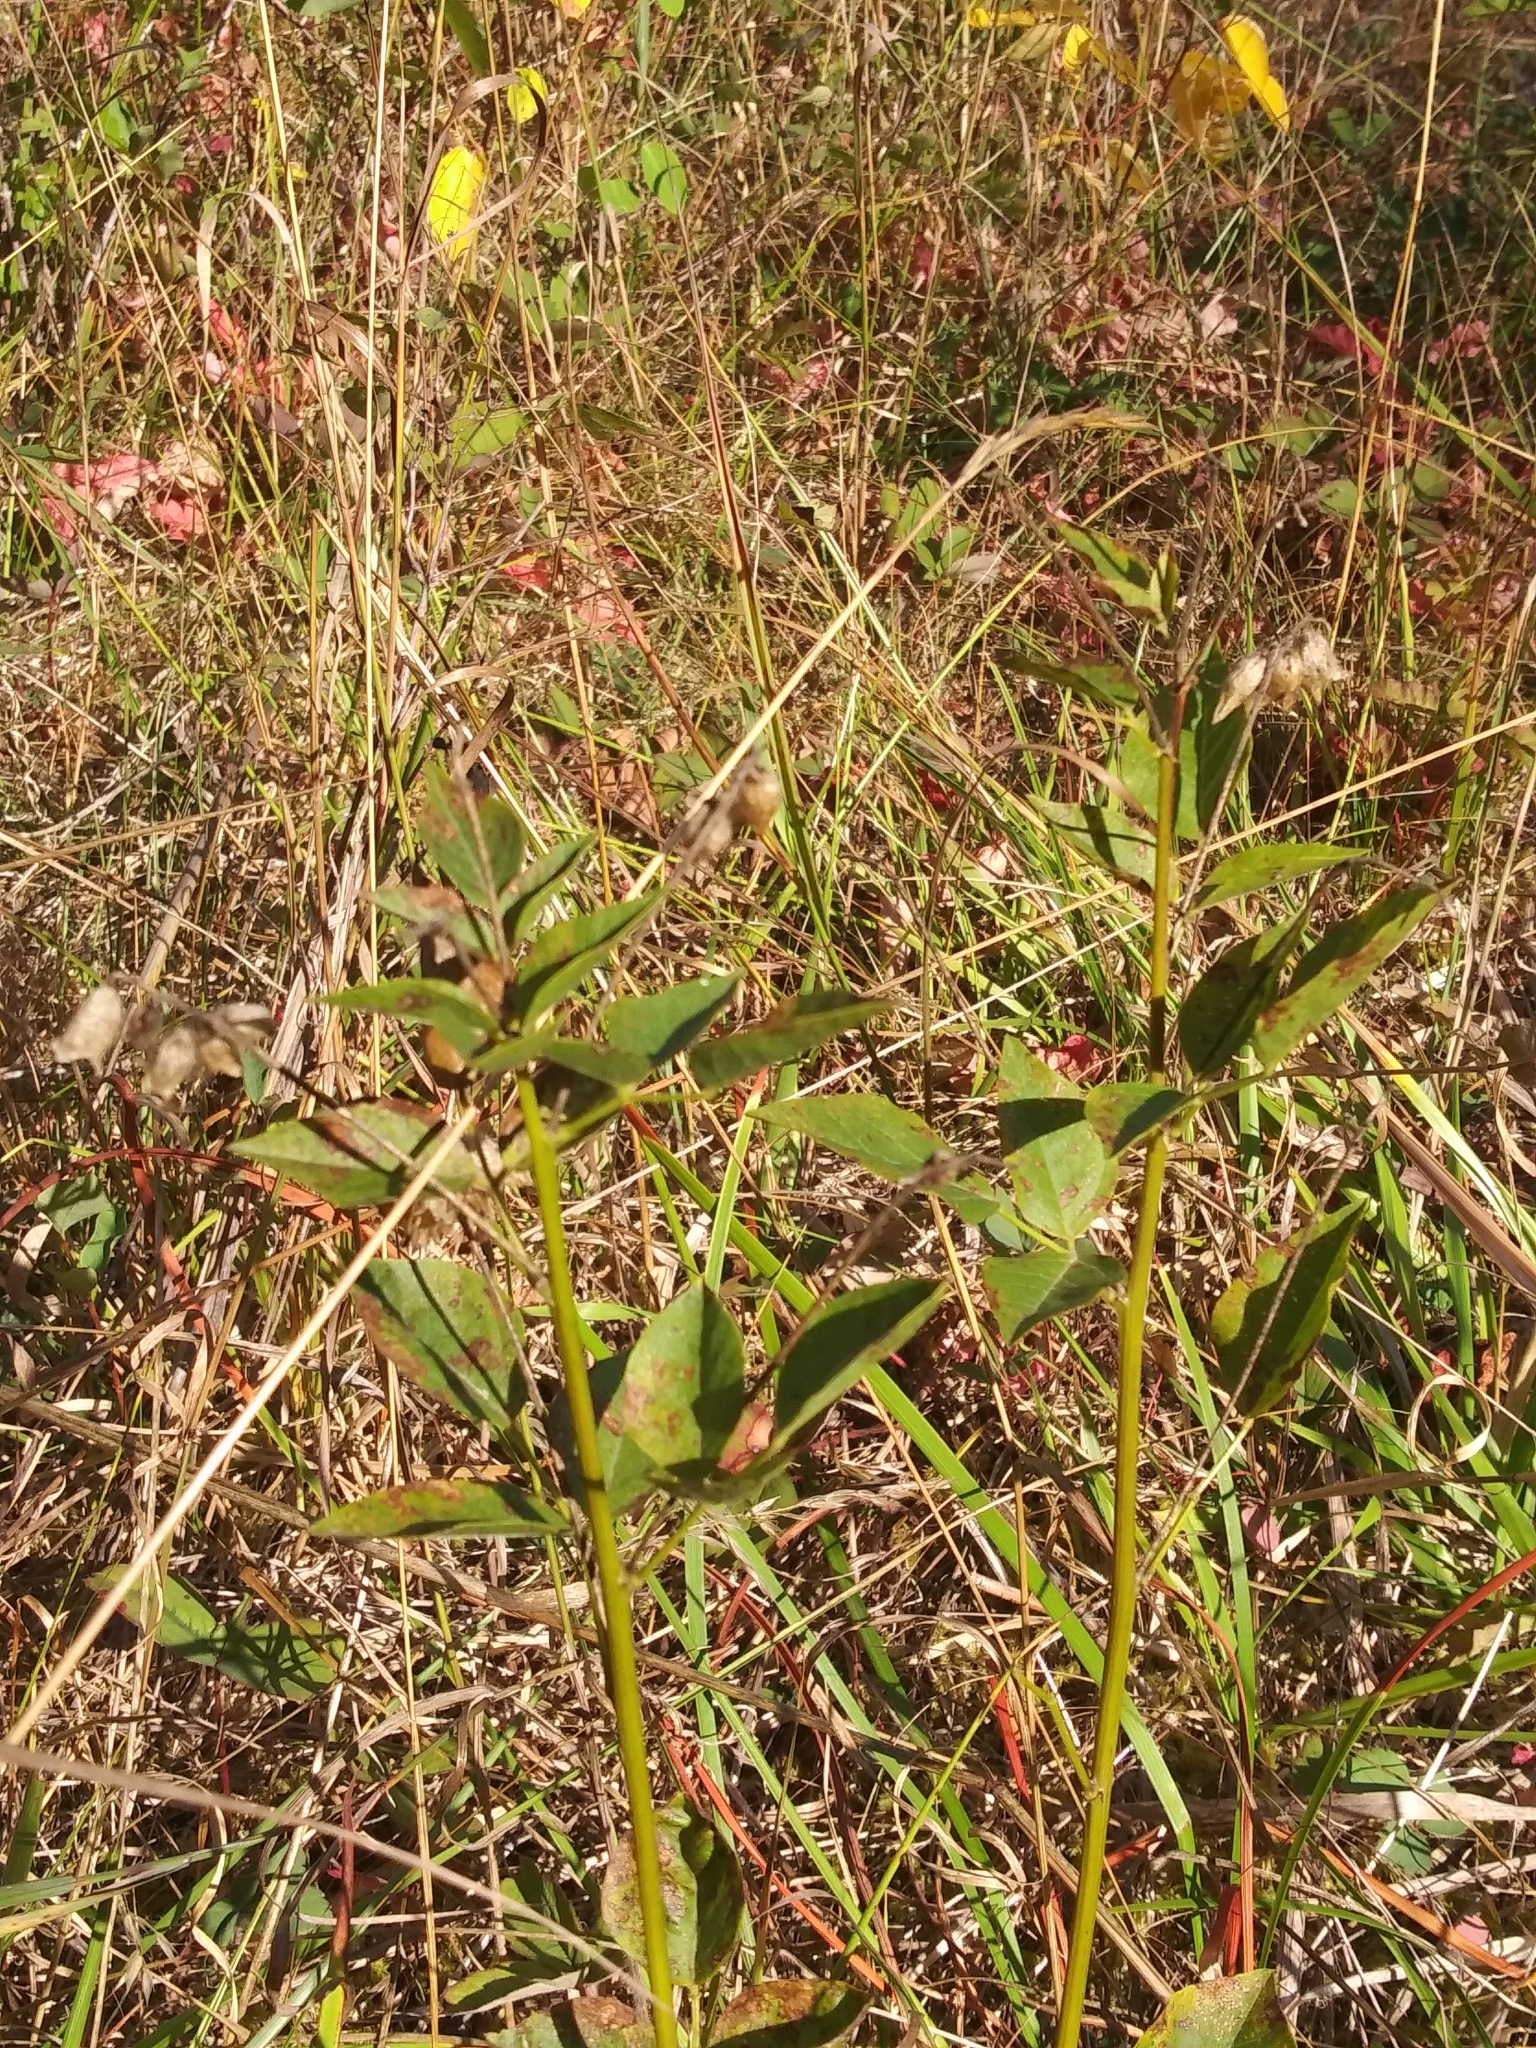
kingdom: Plantae
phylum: Tracheophyta
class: Magnoliopsida
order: Fabales
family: Fabaceae
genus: Rupertia
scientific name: Rupertia physodes
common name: California-tea
